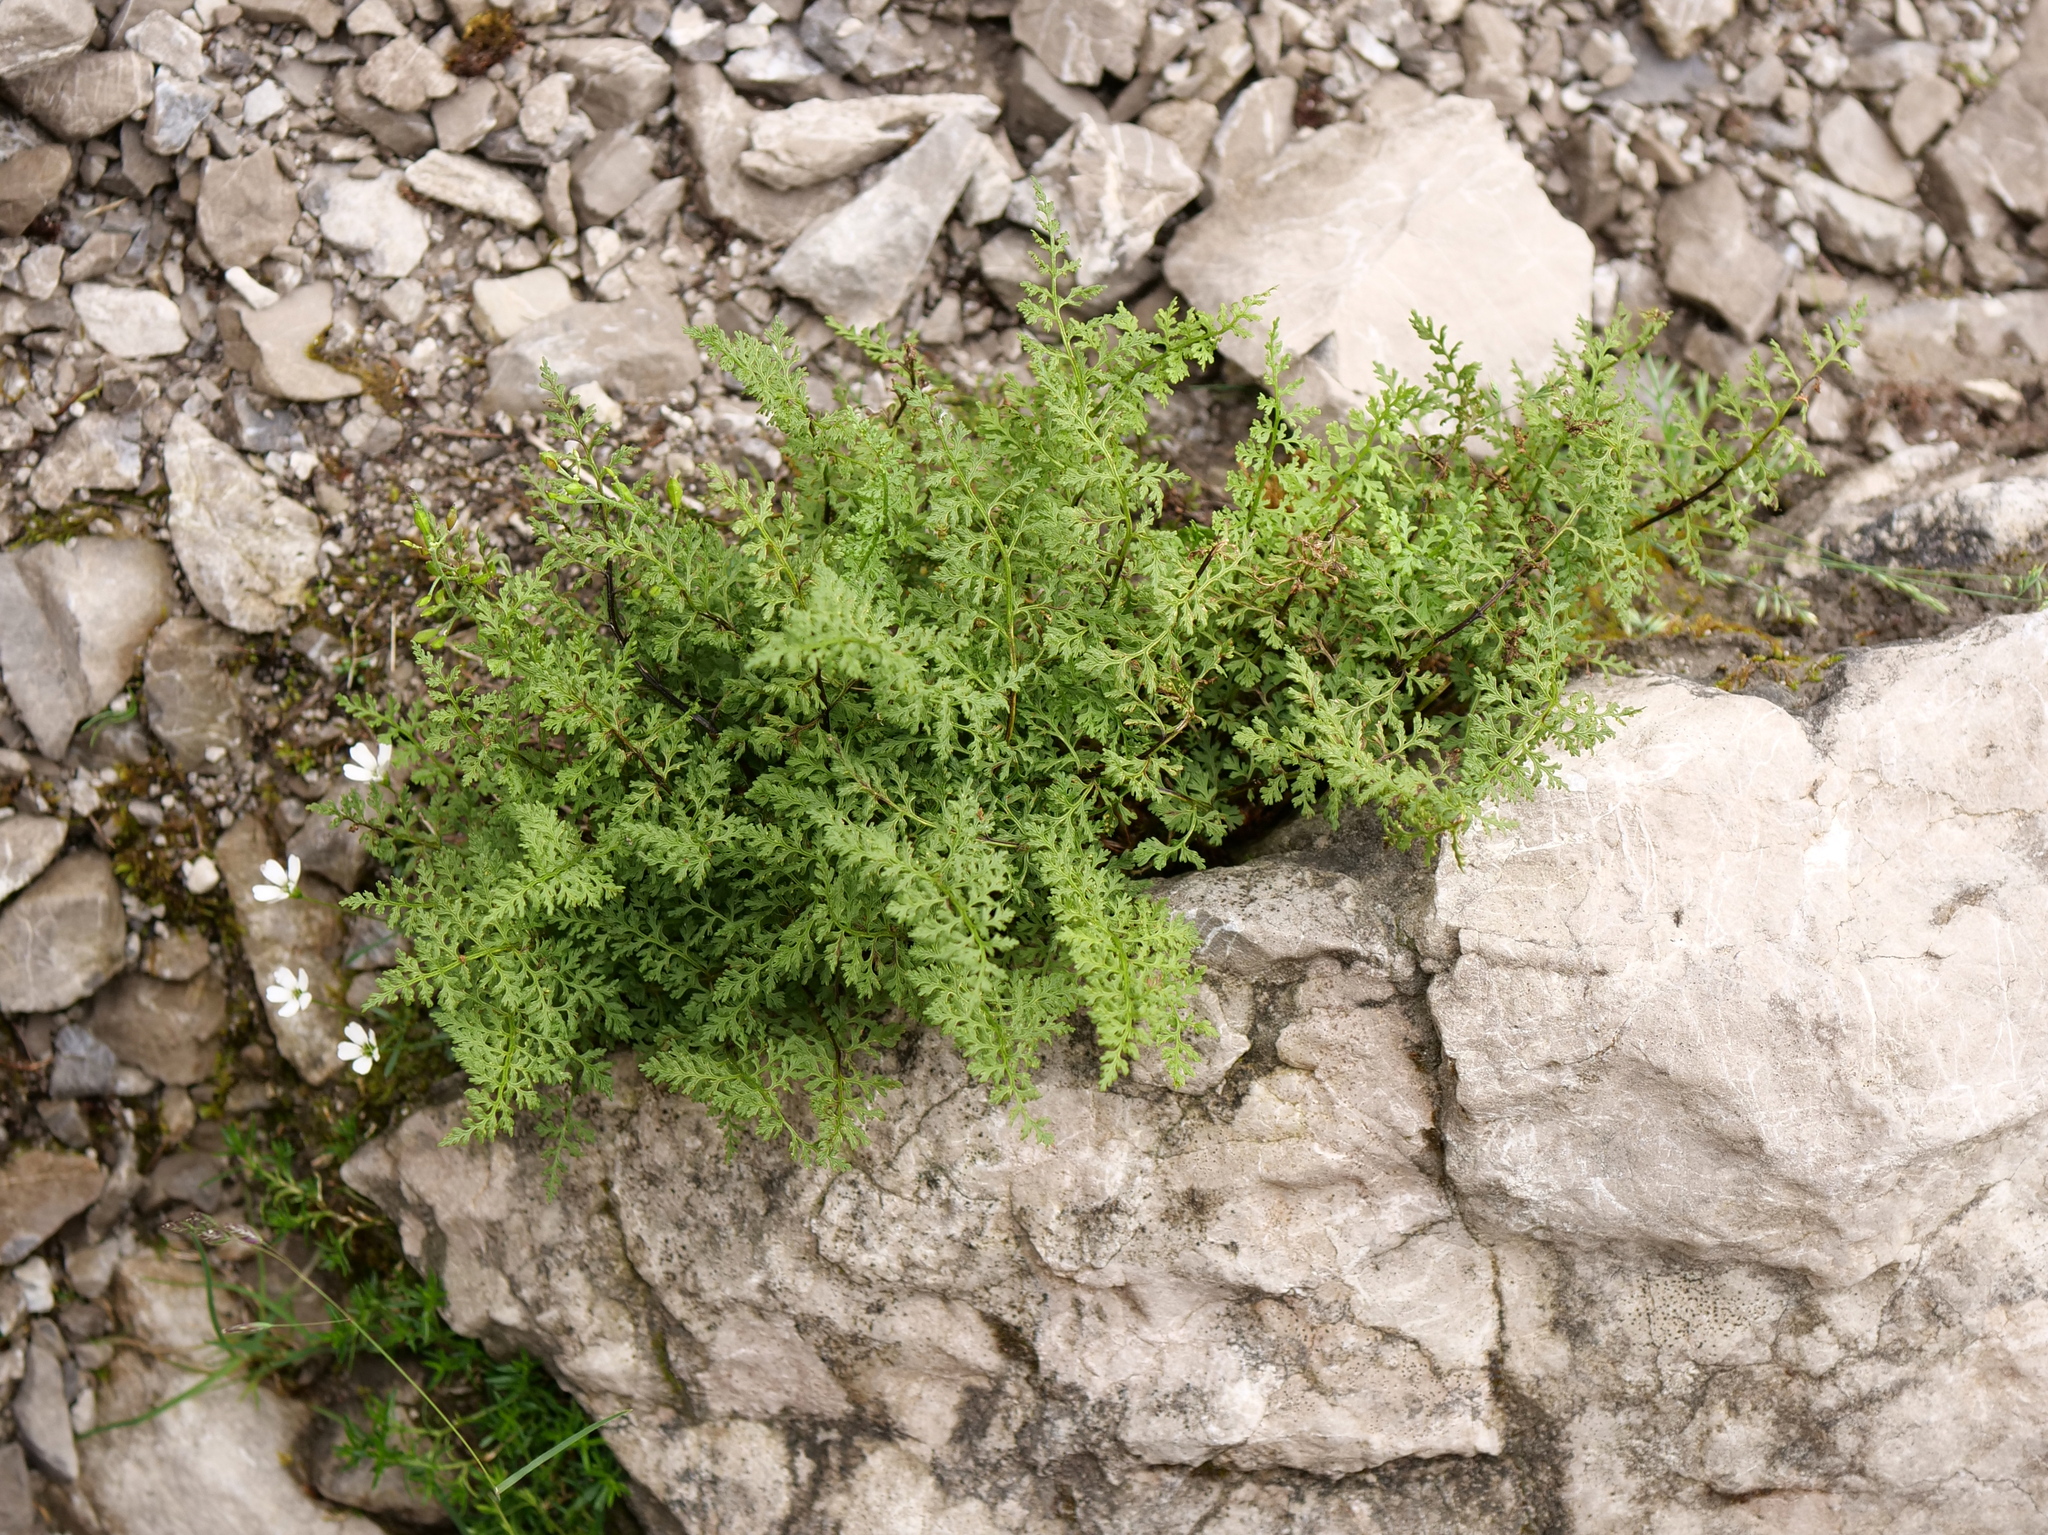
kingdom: Plantae
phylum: Tracheophyta
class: Polypodiopsida
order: Polypodiales
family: Cystopteridaceae
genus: Cystopteris
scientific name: Cystopteris alpina
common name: Alpine bladder-fern
